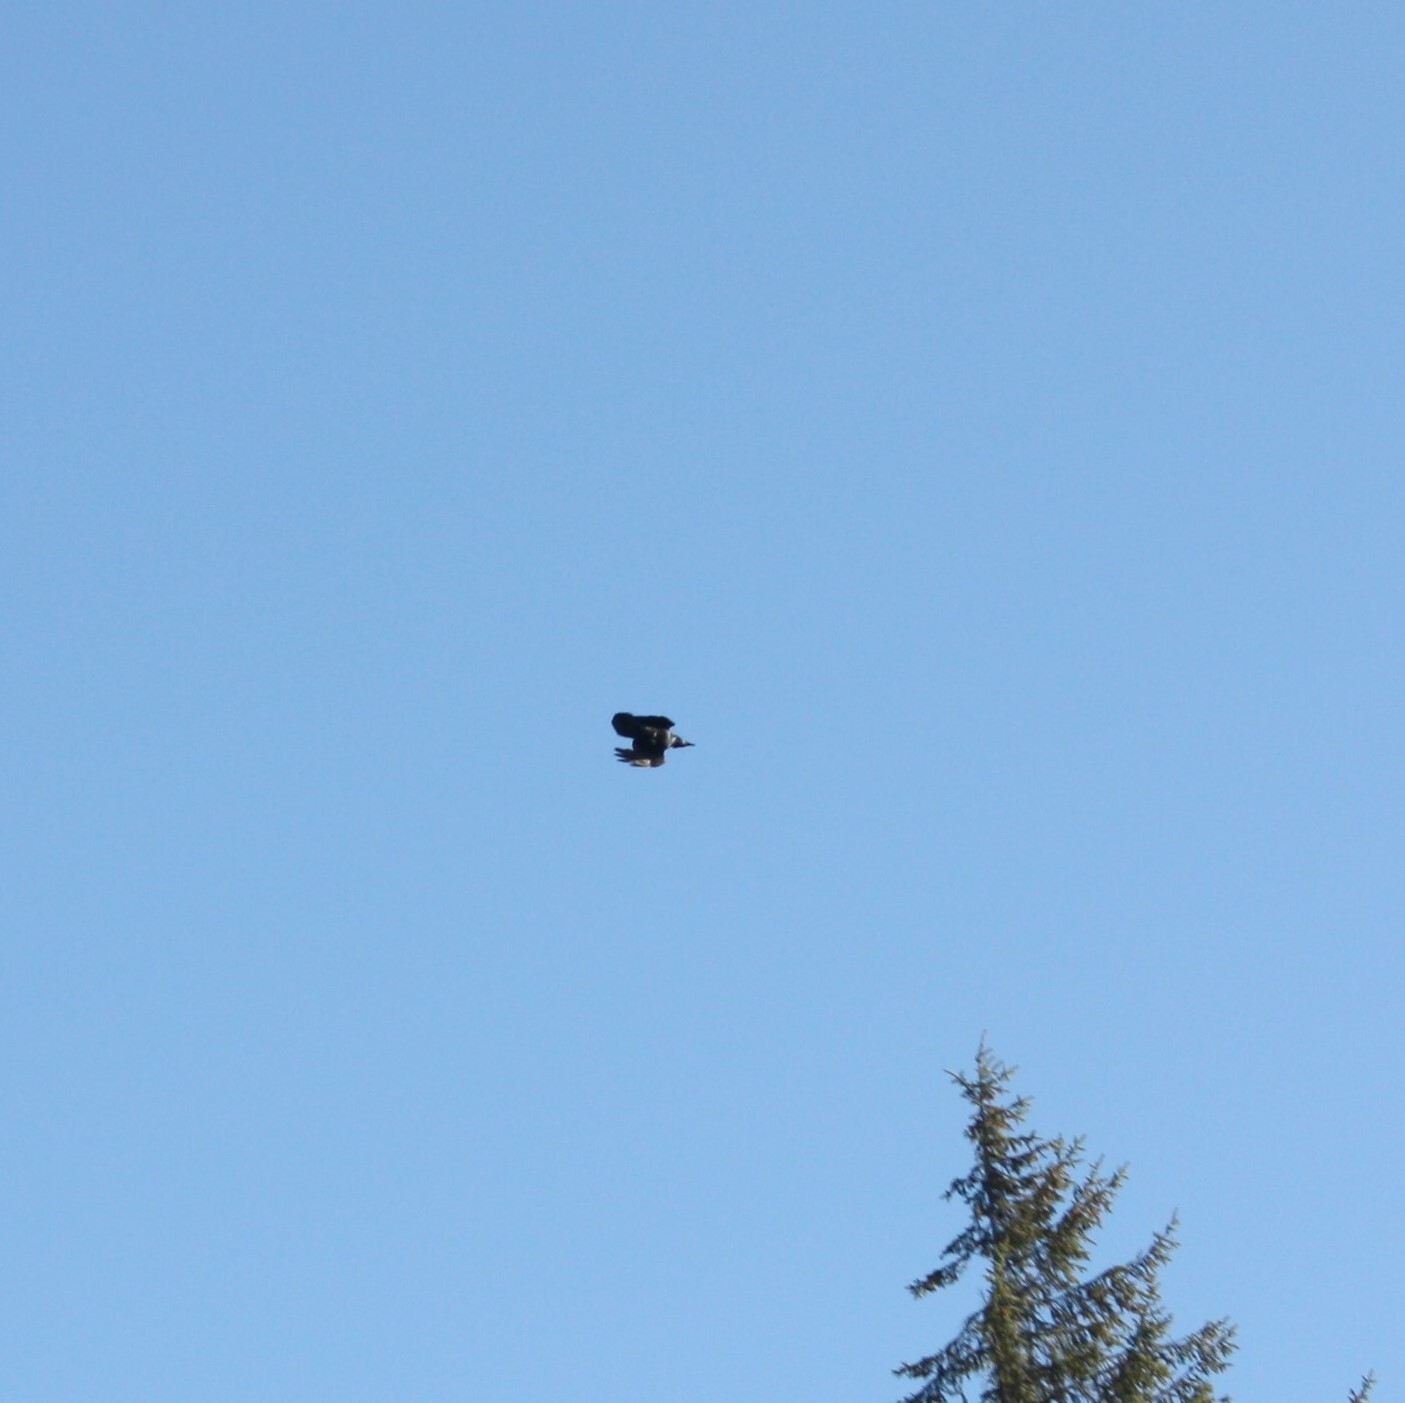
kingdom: Animalia
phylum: Chordata
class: Aves
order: Passeriformes
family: Corvidae
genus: Corvus
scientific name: Corvus corax
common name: Common raven
